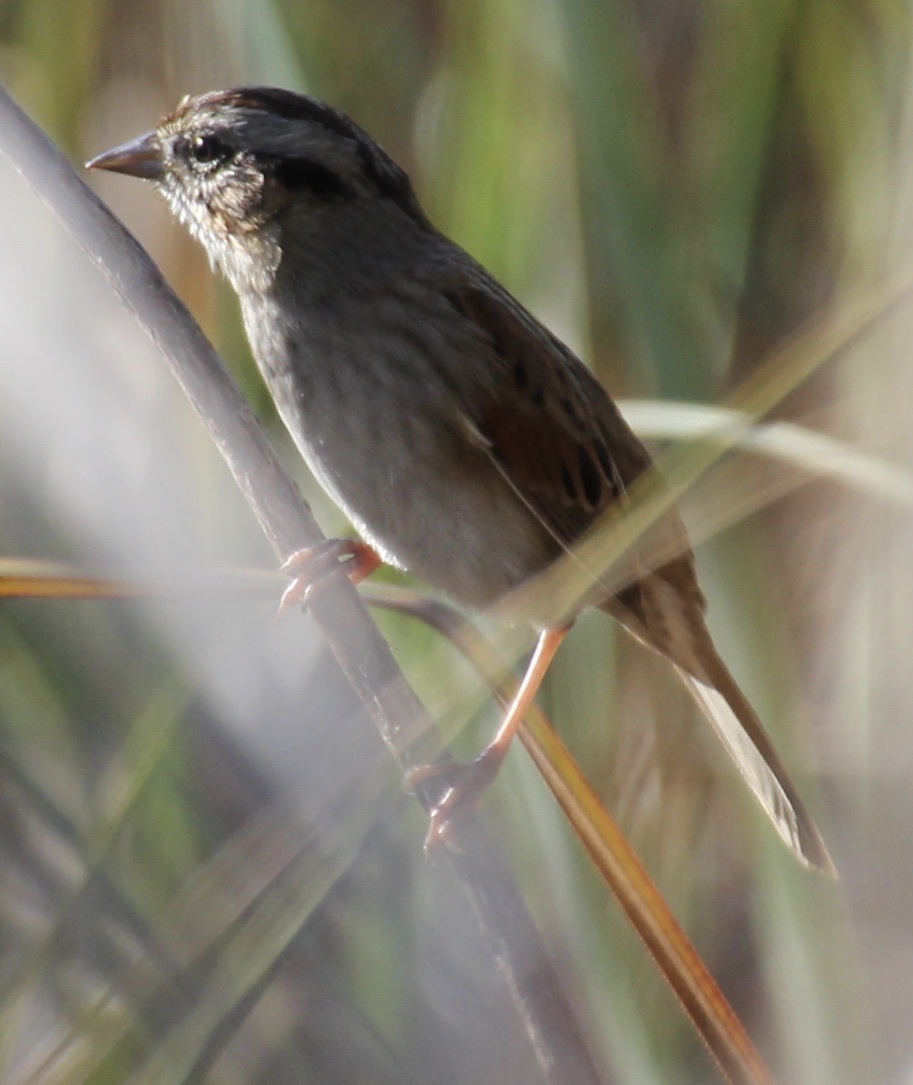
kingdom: Animalia
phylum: Chordata
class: Aves
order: Passeriformes
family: Passerellidae
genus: Melospiza
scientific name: Melospiza georgiana
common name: Swamp sparrow
